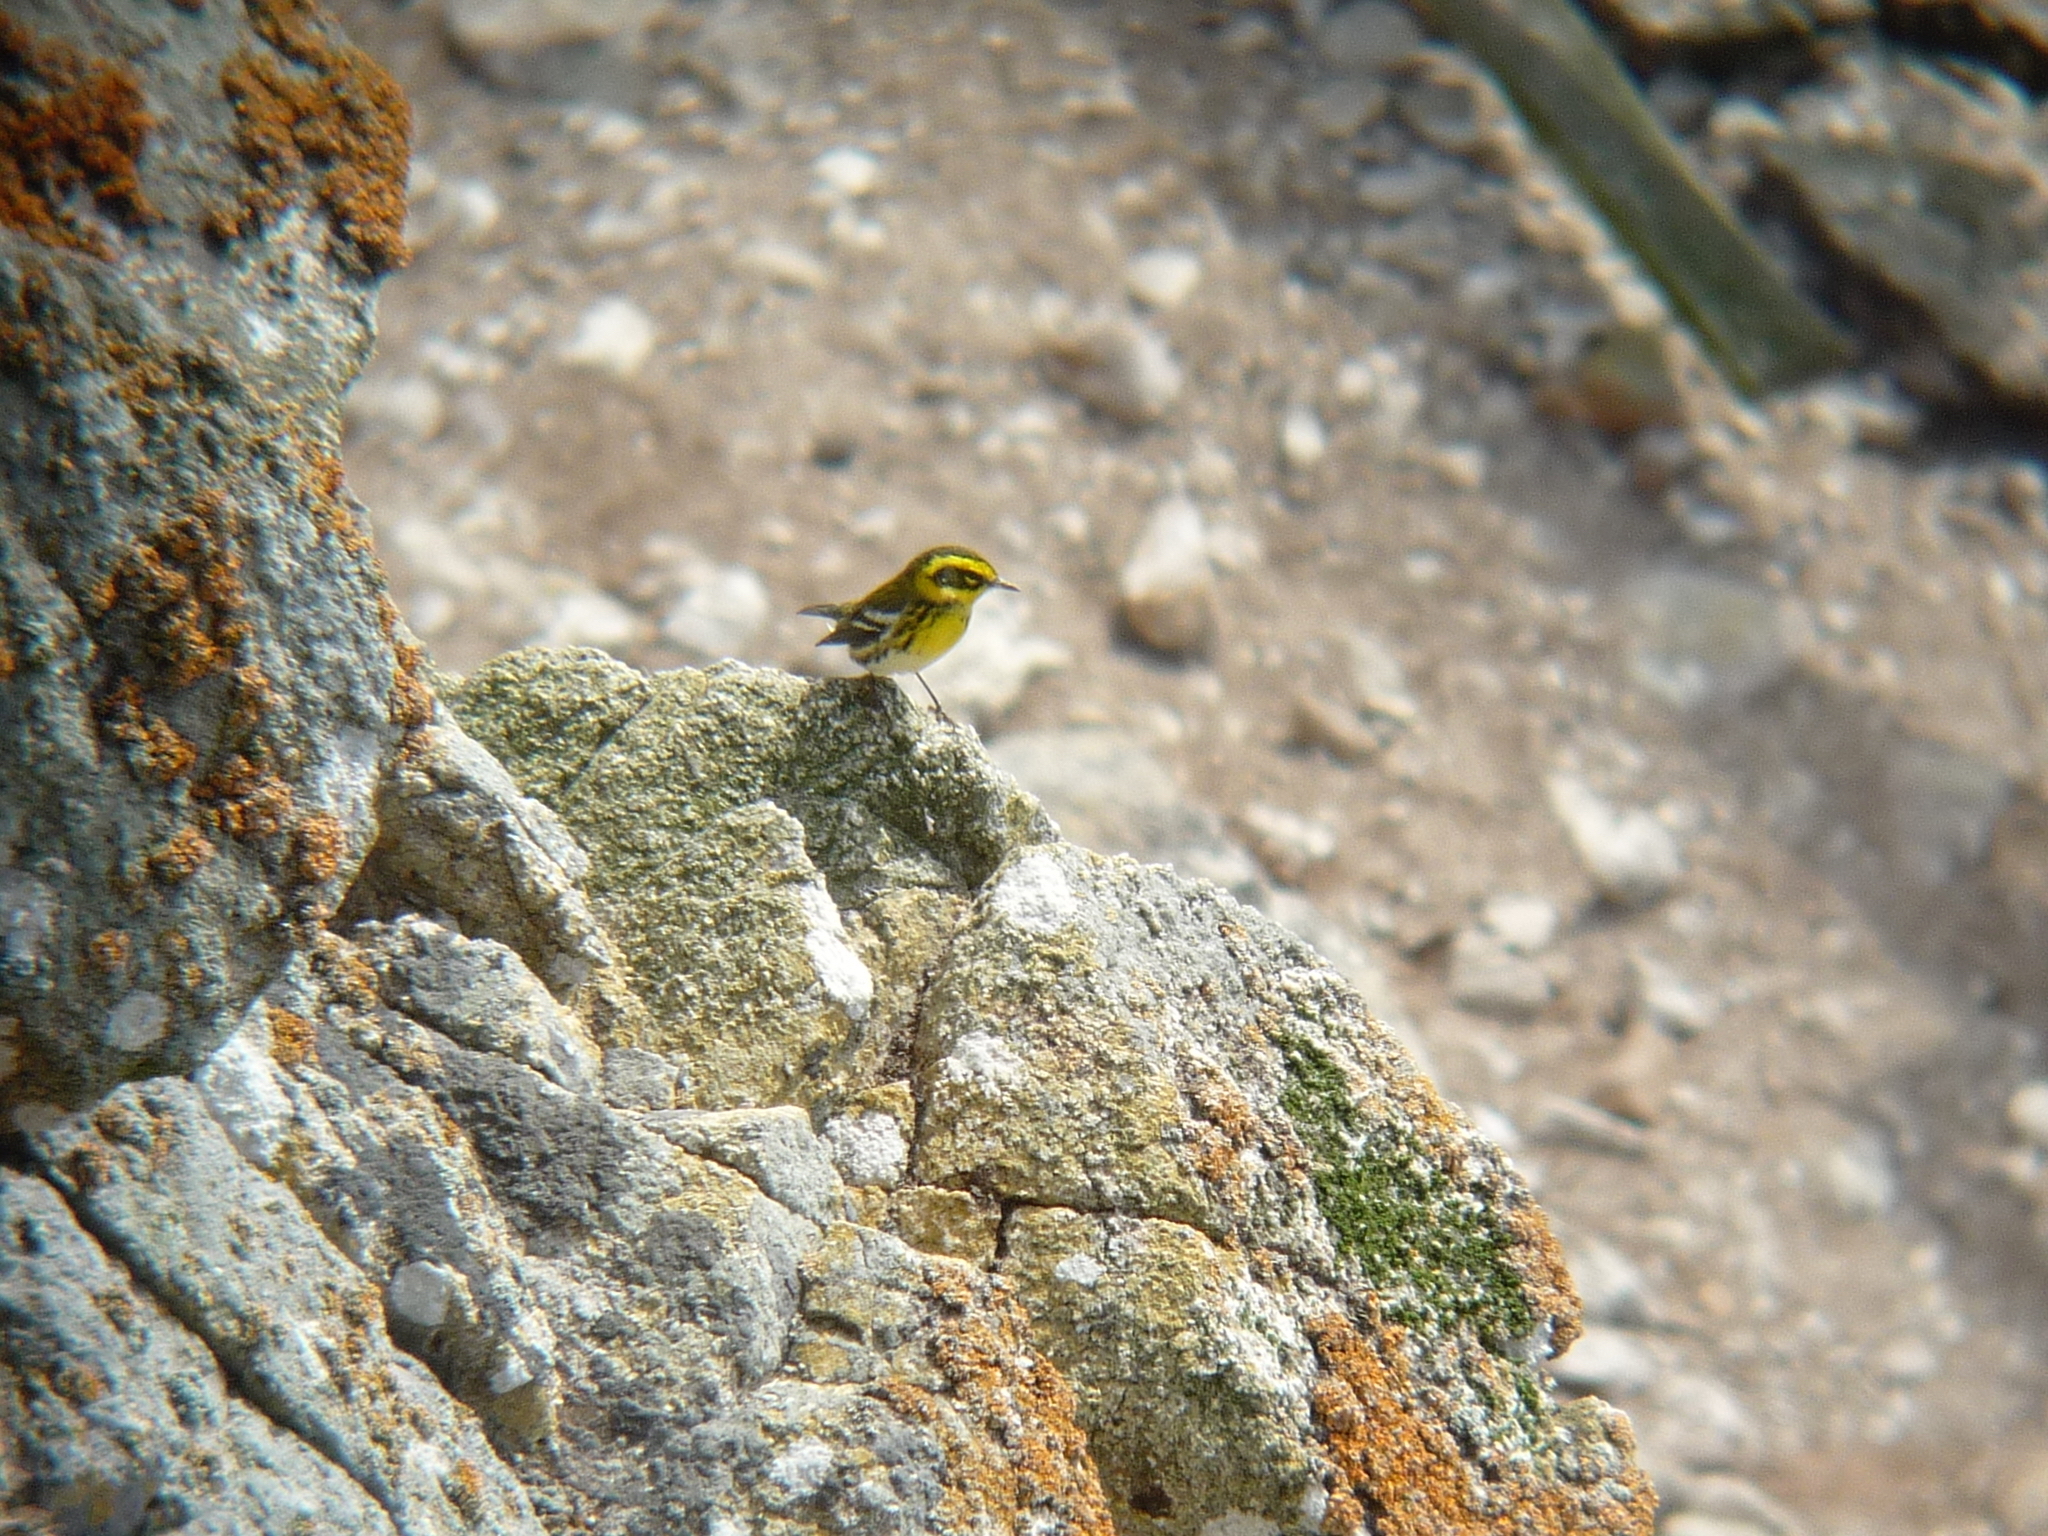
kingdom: Animalia
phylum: Chordata
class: Aves
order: Passeriformes
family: Parulidae
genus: Setophaga
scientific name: Setophaga townsendi
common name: Townsend's warbler
